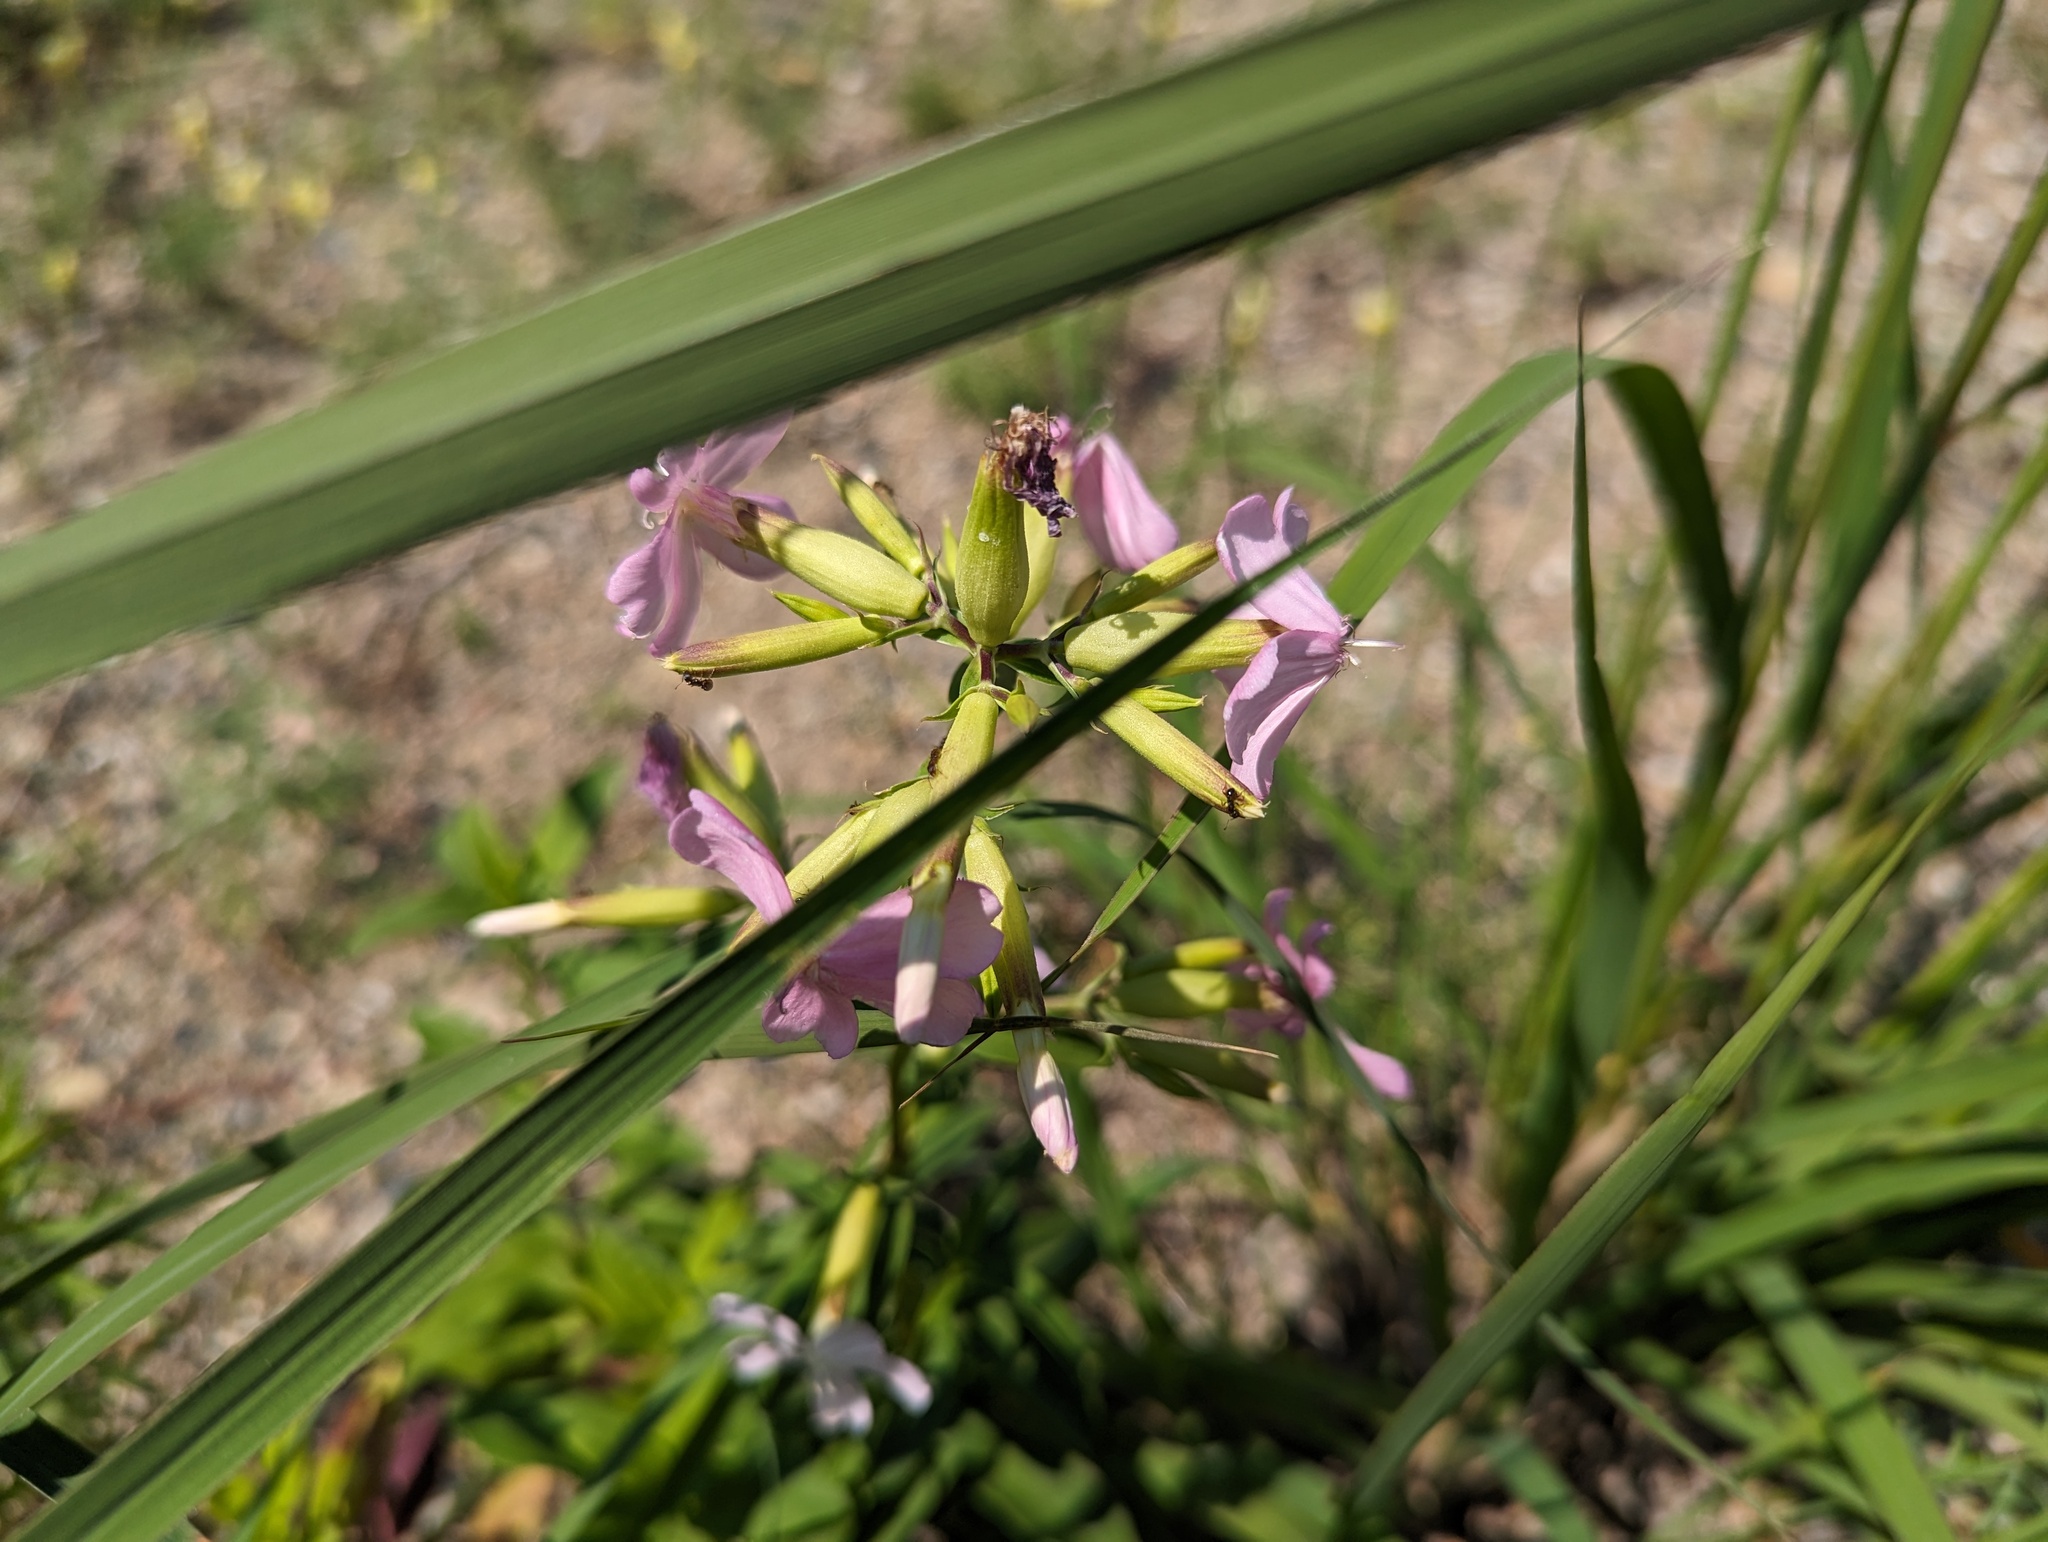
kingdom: Plantae
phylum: Tracheophyta
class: Magnoliopsida
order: Caryophyllales
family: Caryophyllaceae
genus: Saponaria
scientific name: Saponaria officinalis
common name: Soapwort
